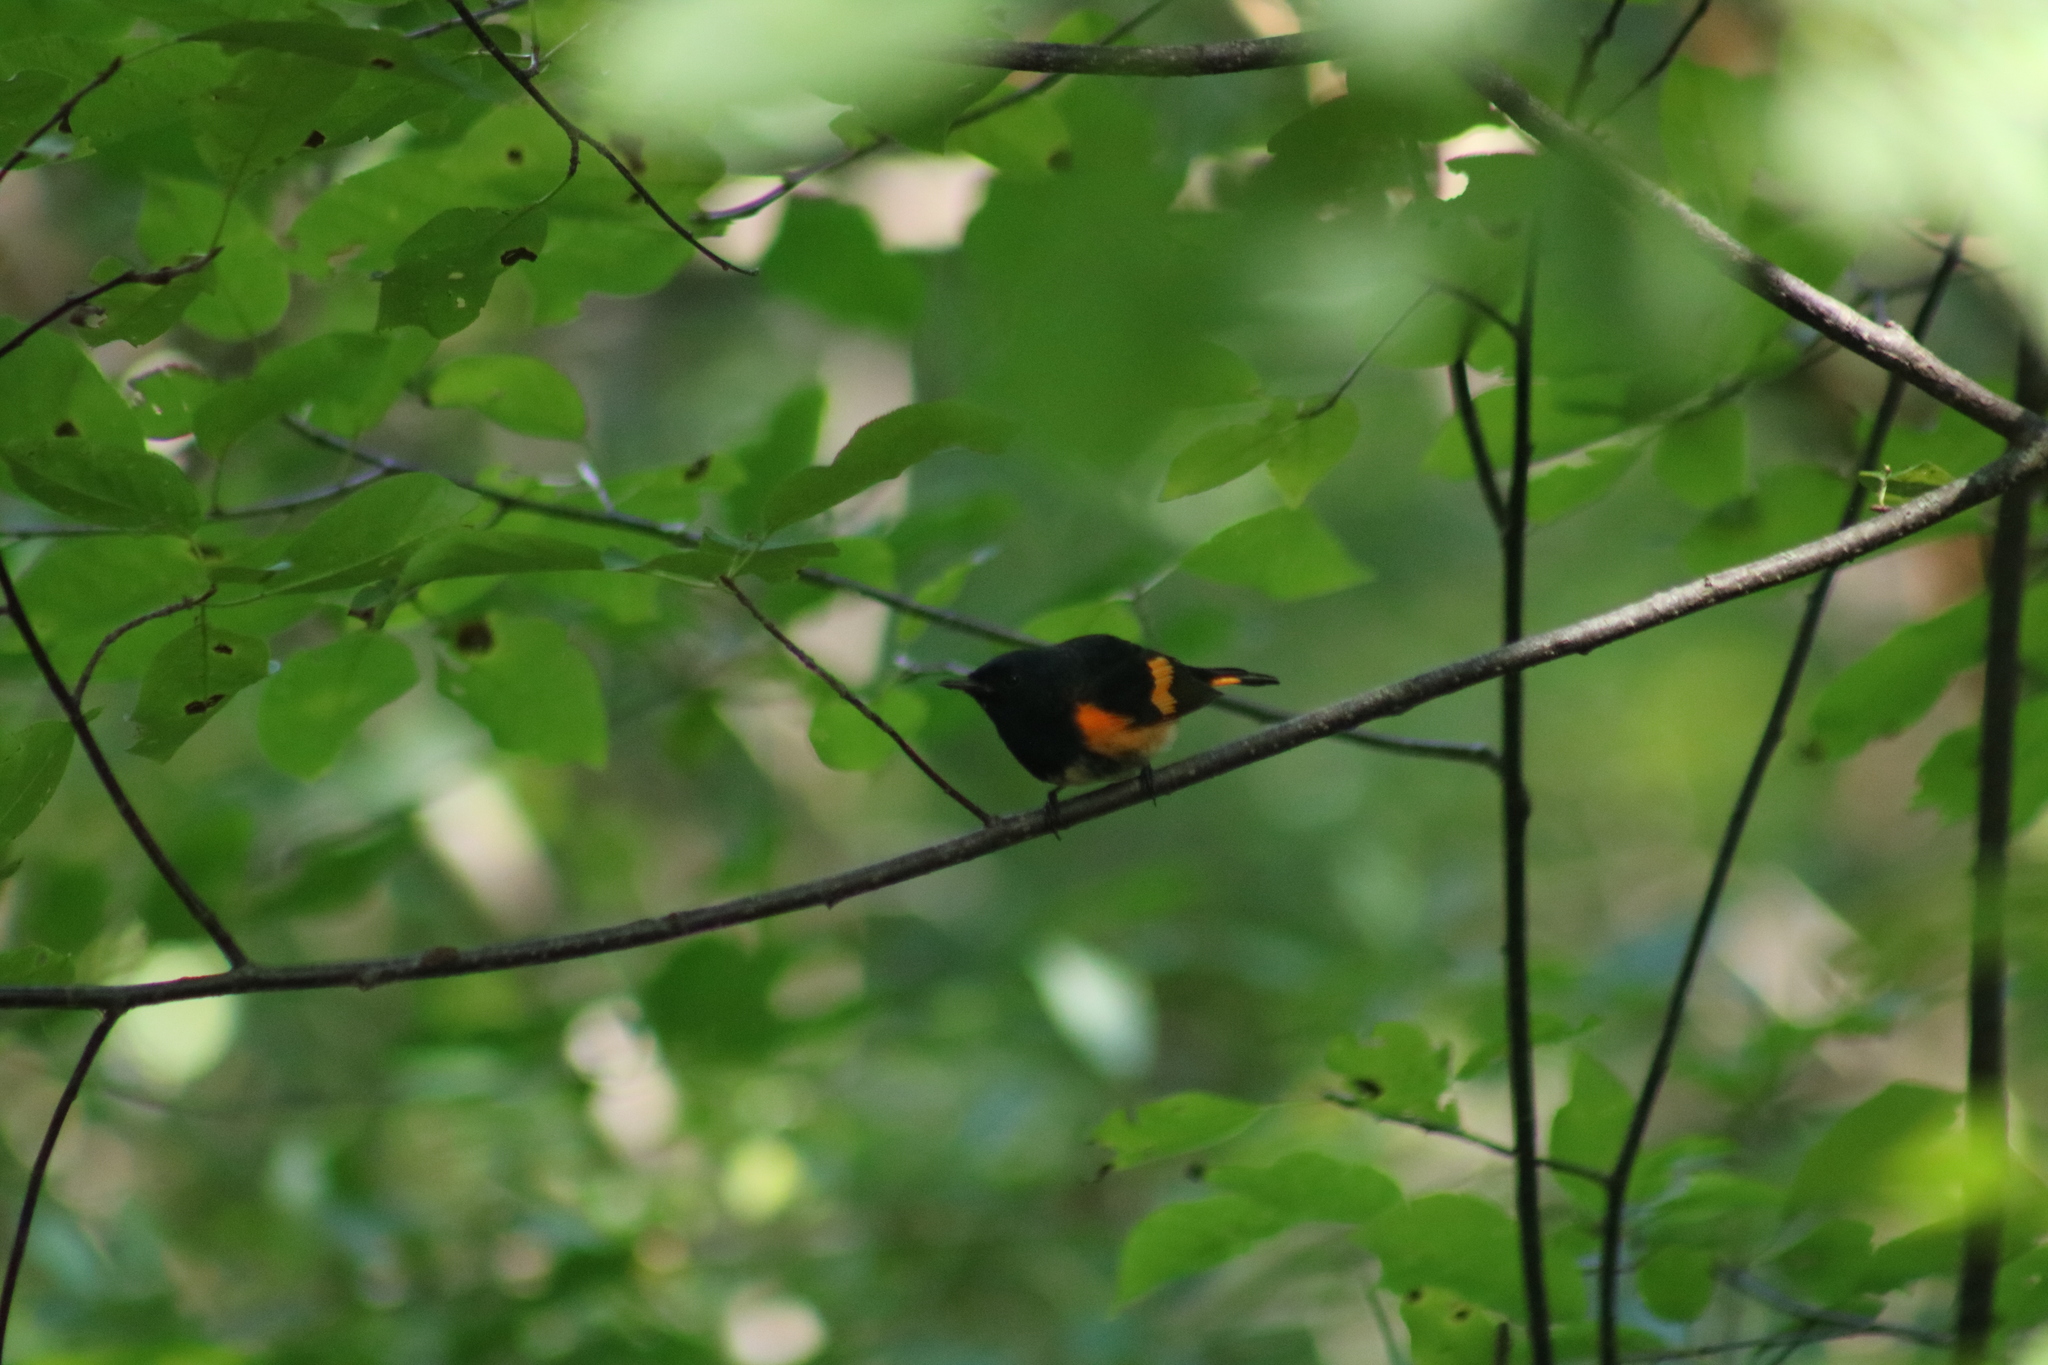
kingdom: Animalia
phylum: Chordata
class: Aves
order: Passeriformes
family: Parulidae
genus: Setophaga
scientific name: Setophaga ruticilla
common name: American redstart
